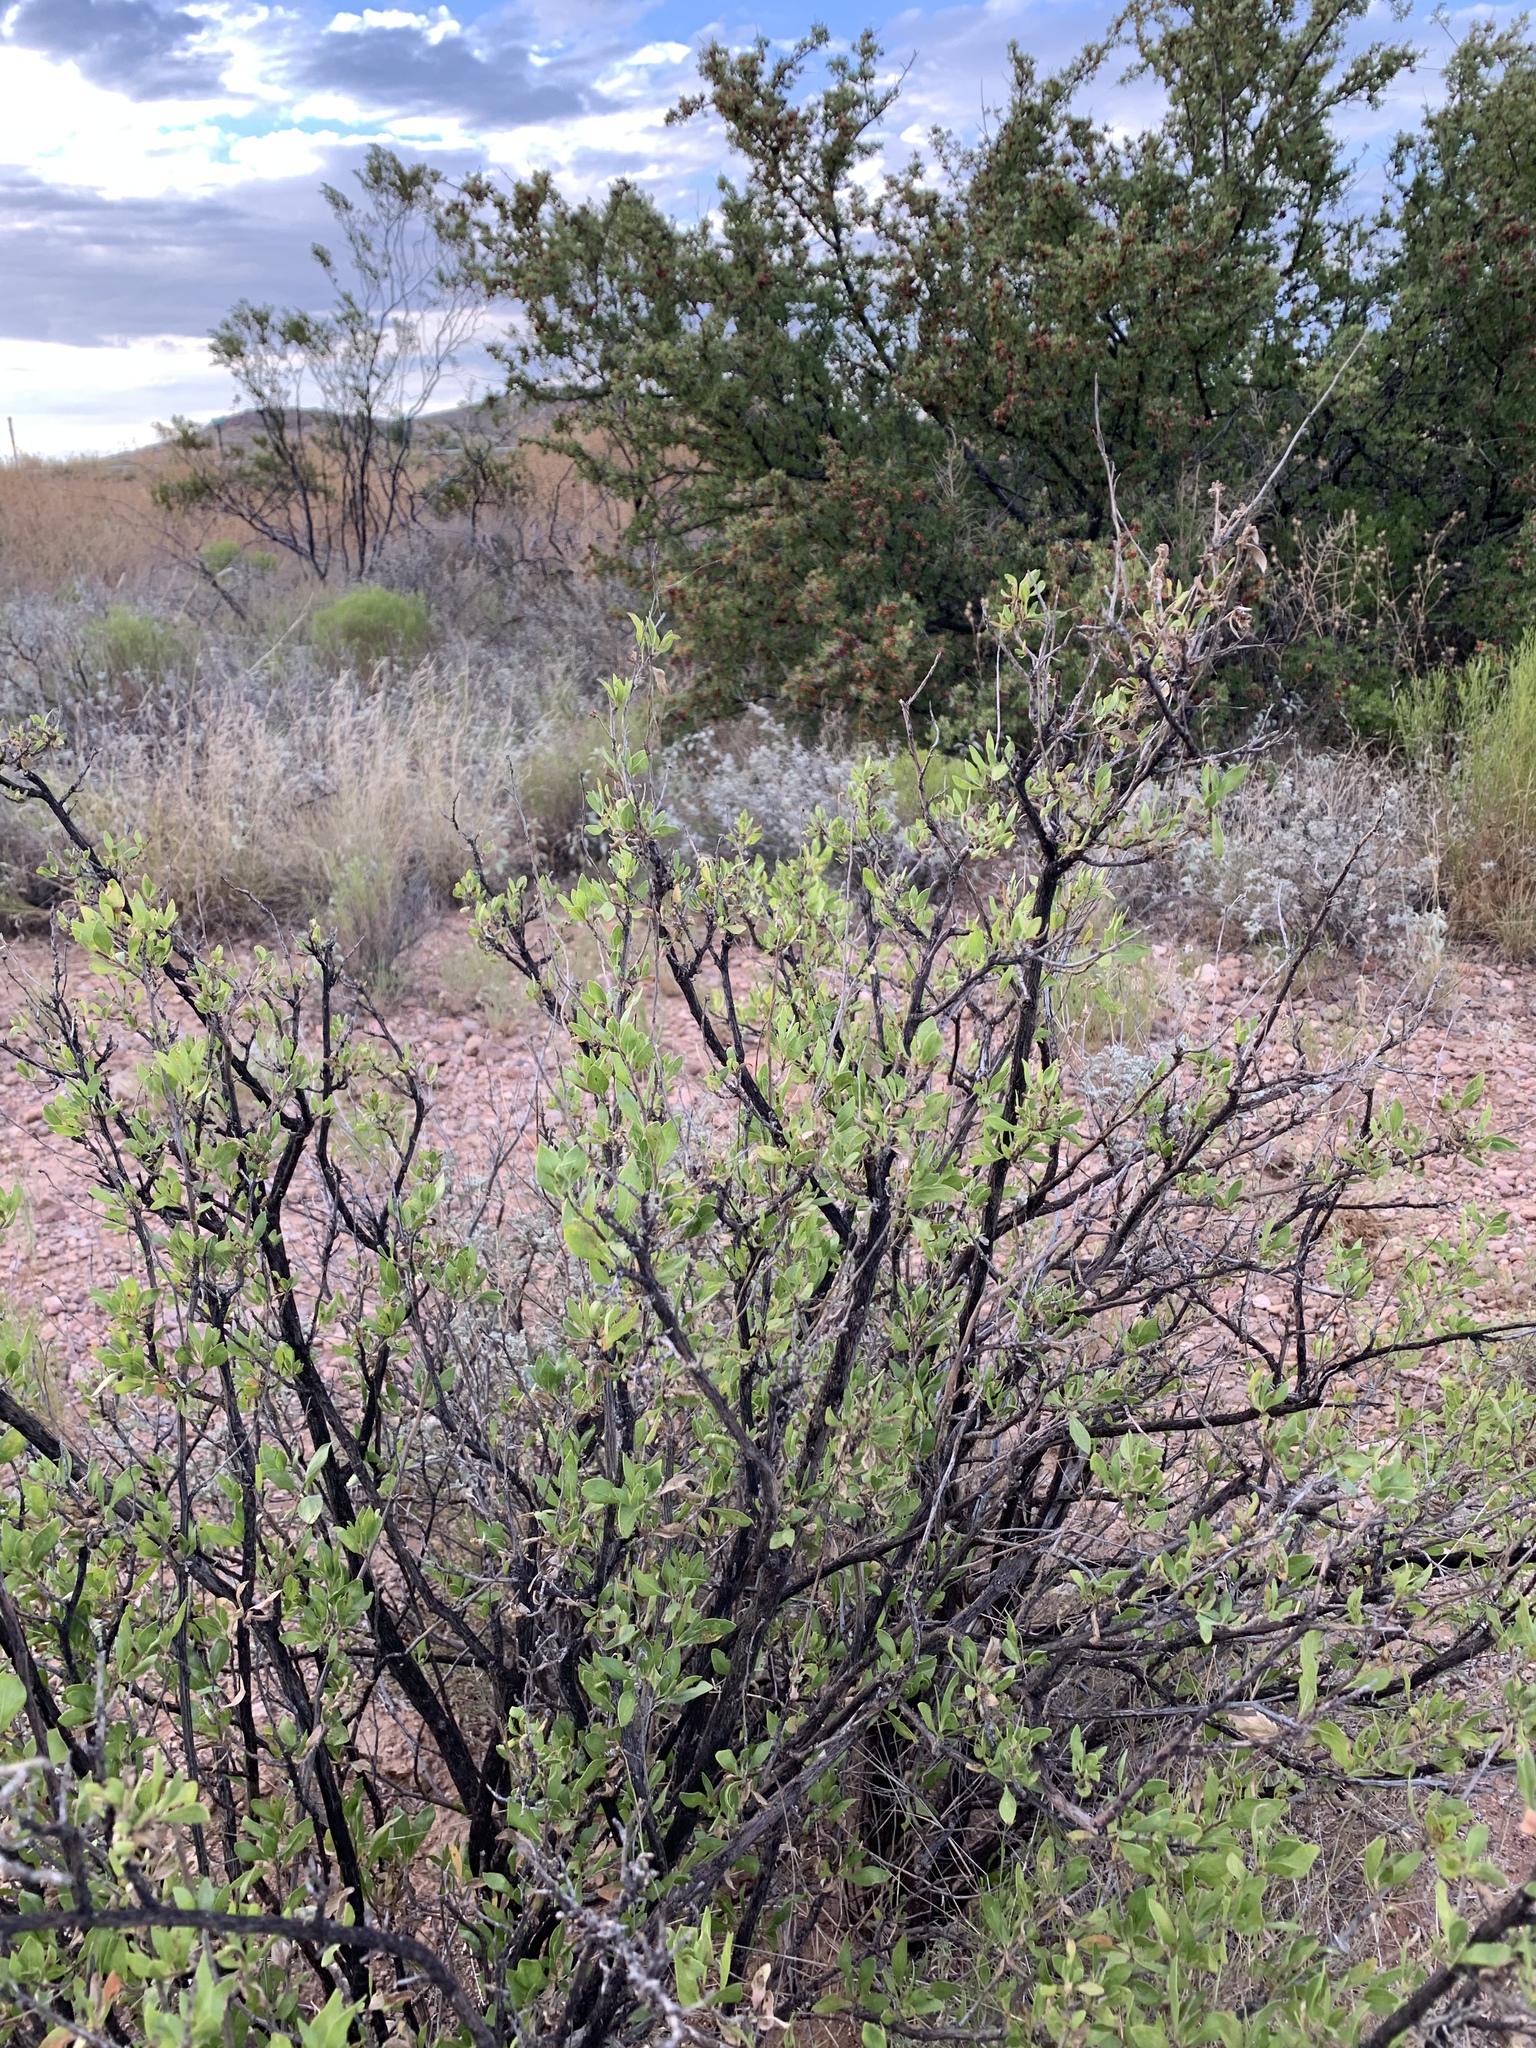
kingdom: Plantae
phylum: Tracheophyta
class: Magnoliopsida
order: Asterales
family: Asteraceae
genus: Flourensia
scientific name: Flourensia cernua
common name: Varnishbush
